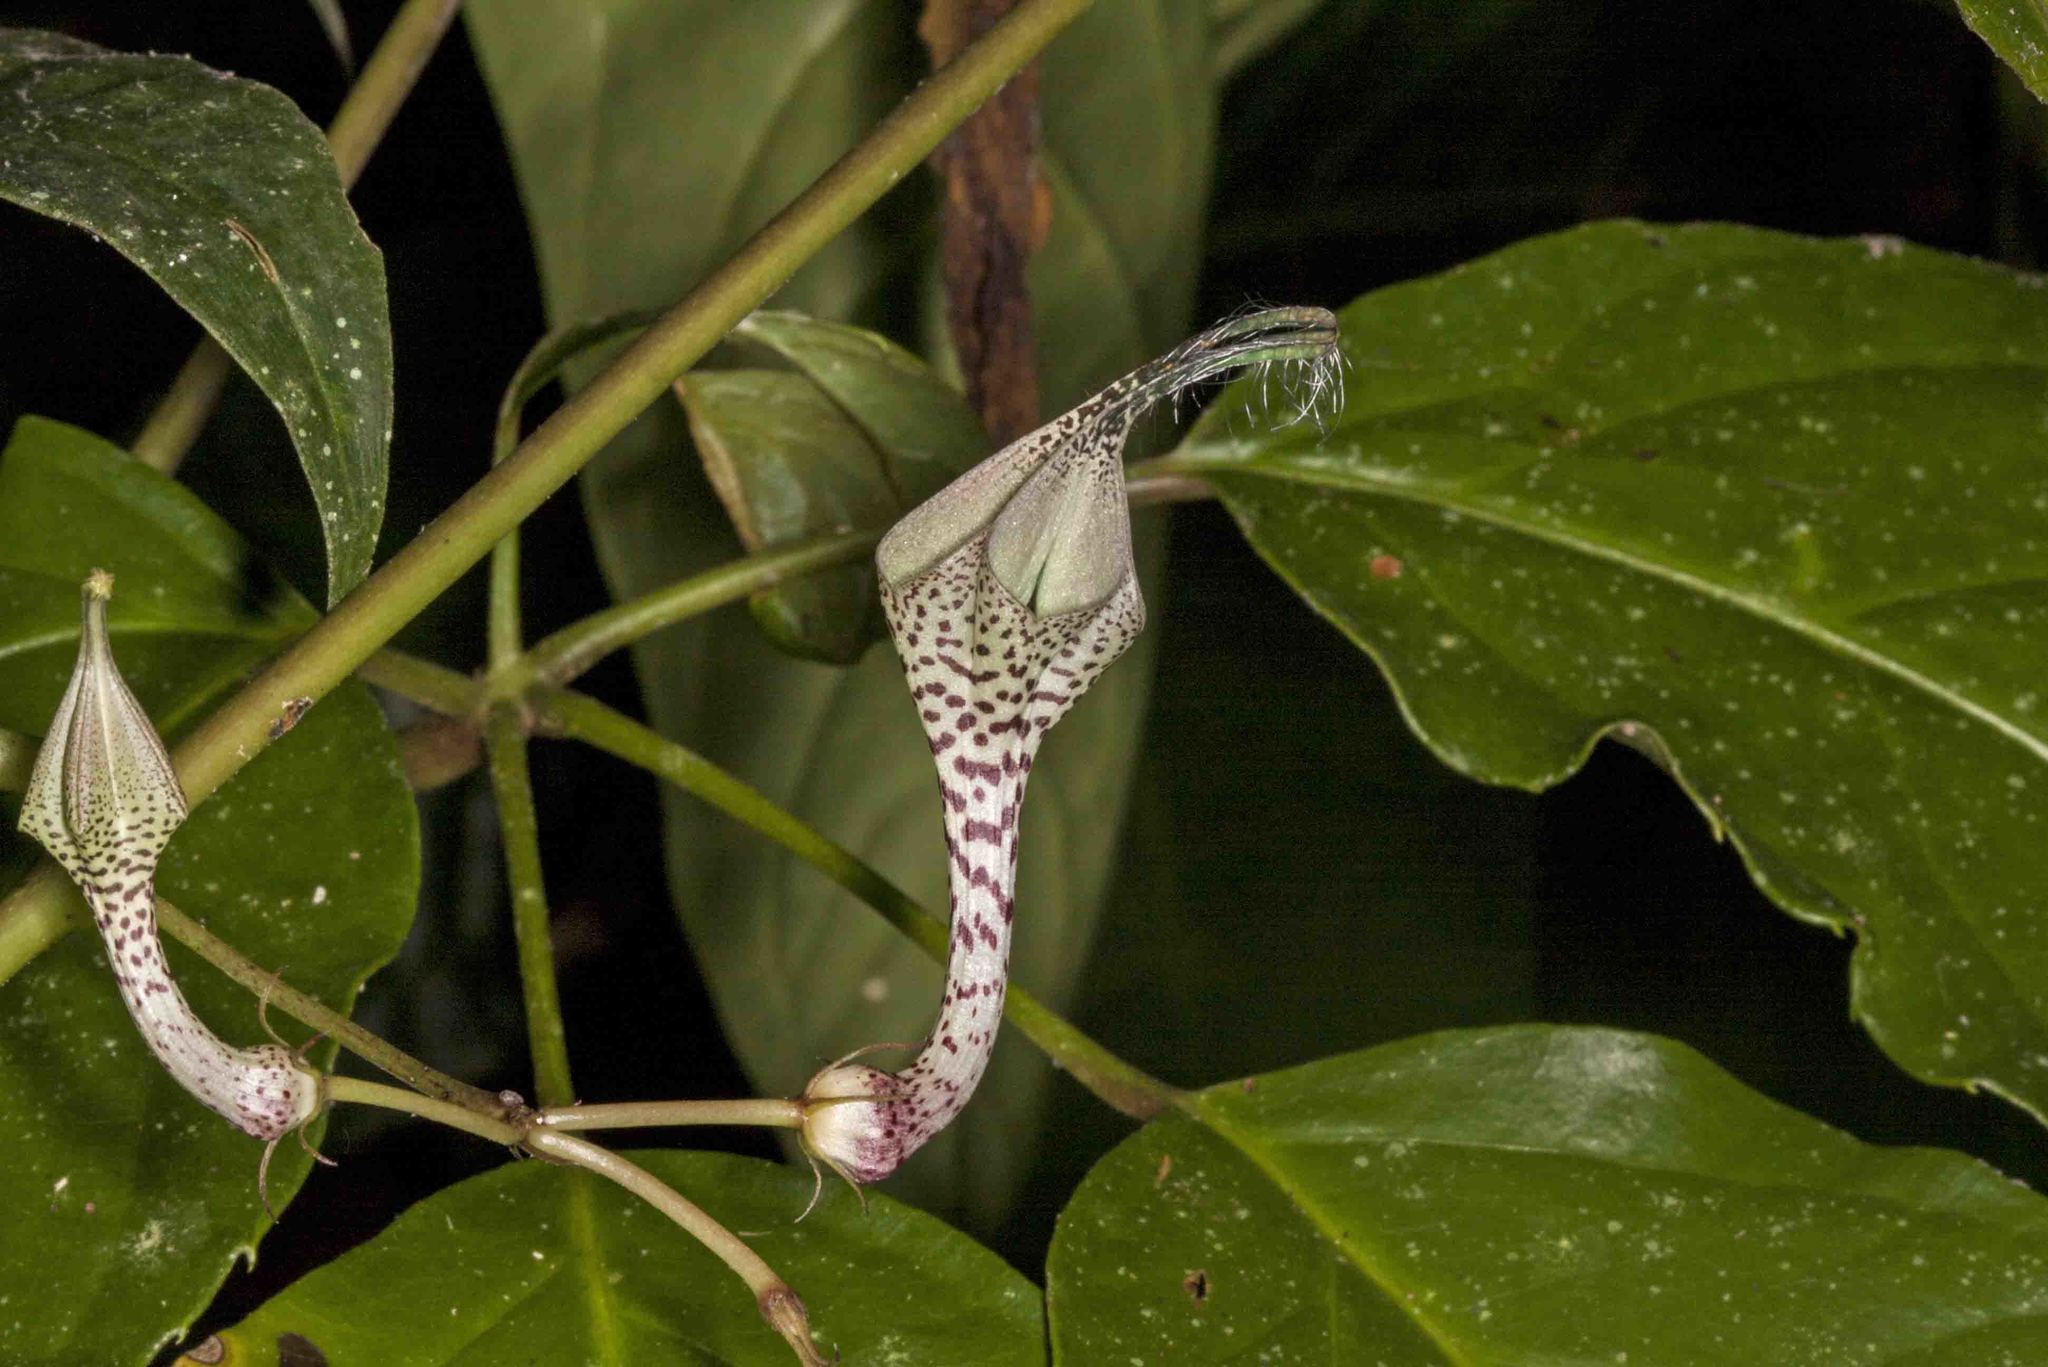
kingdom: Plantae
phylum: Tracheophyta
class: Magnoliopsida
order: Gentianales
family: Apocynaceae
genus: Ceropegia
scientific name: Ceropegia lucida
